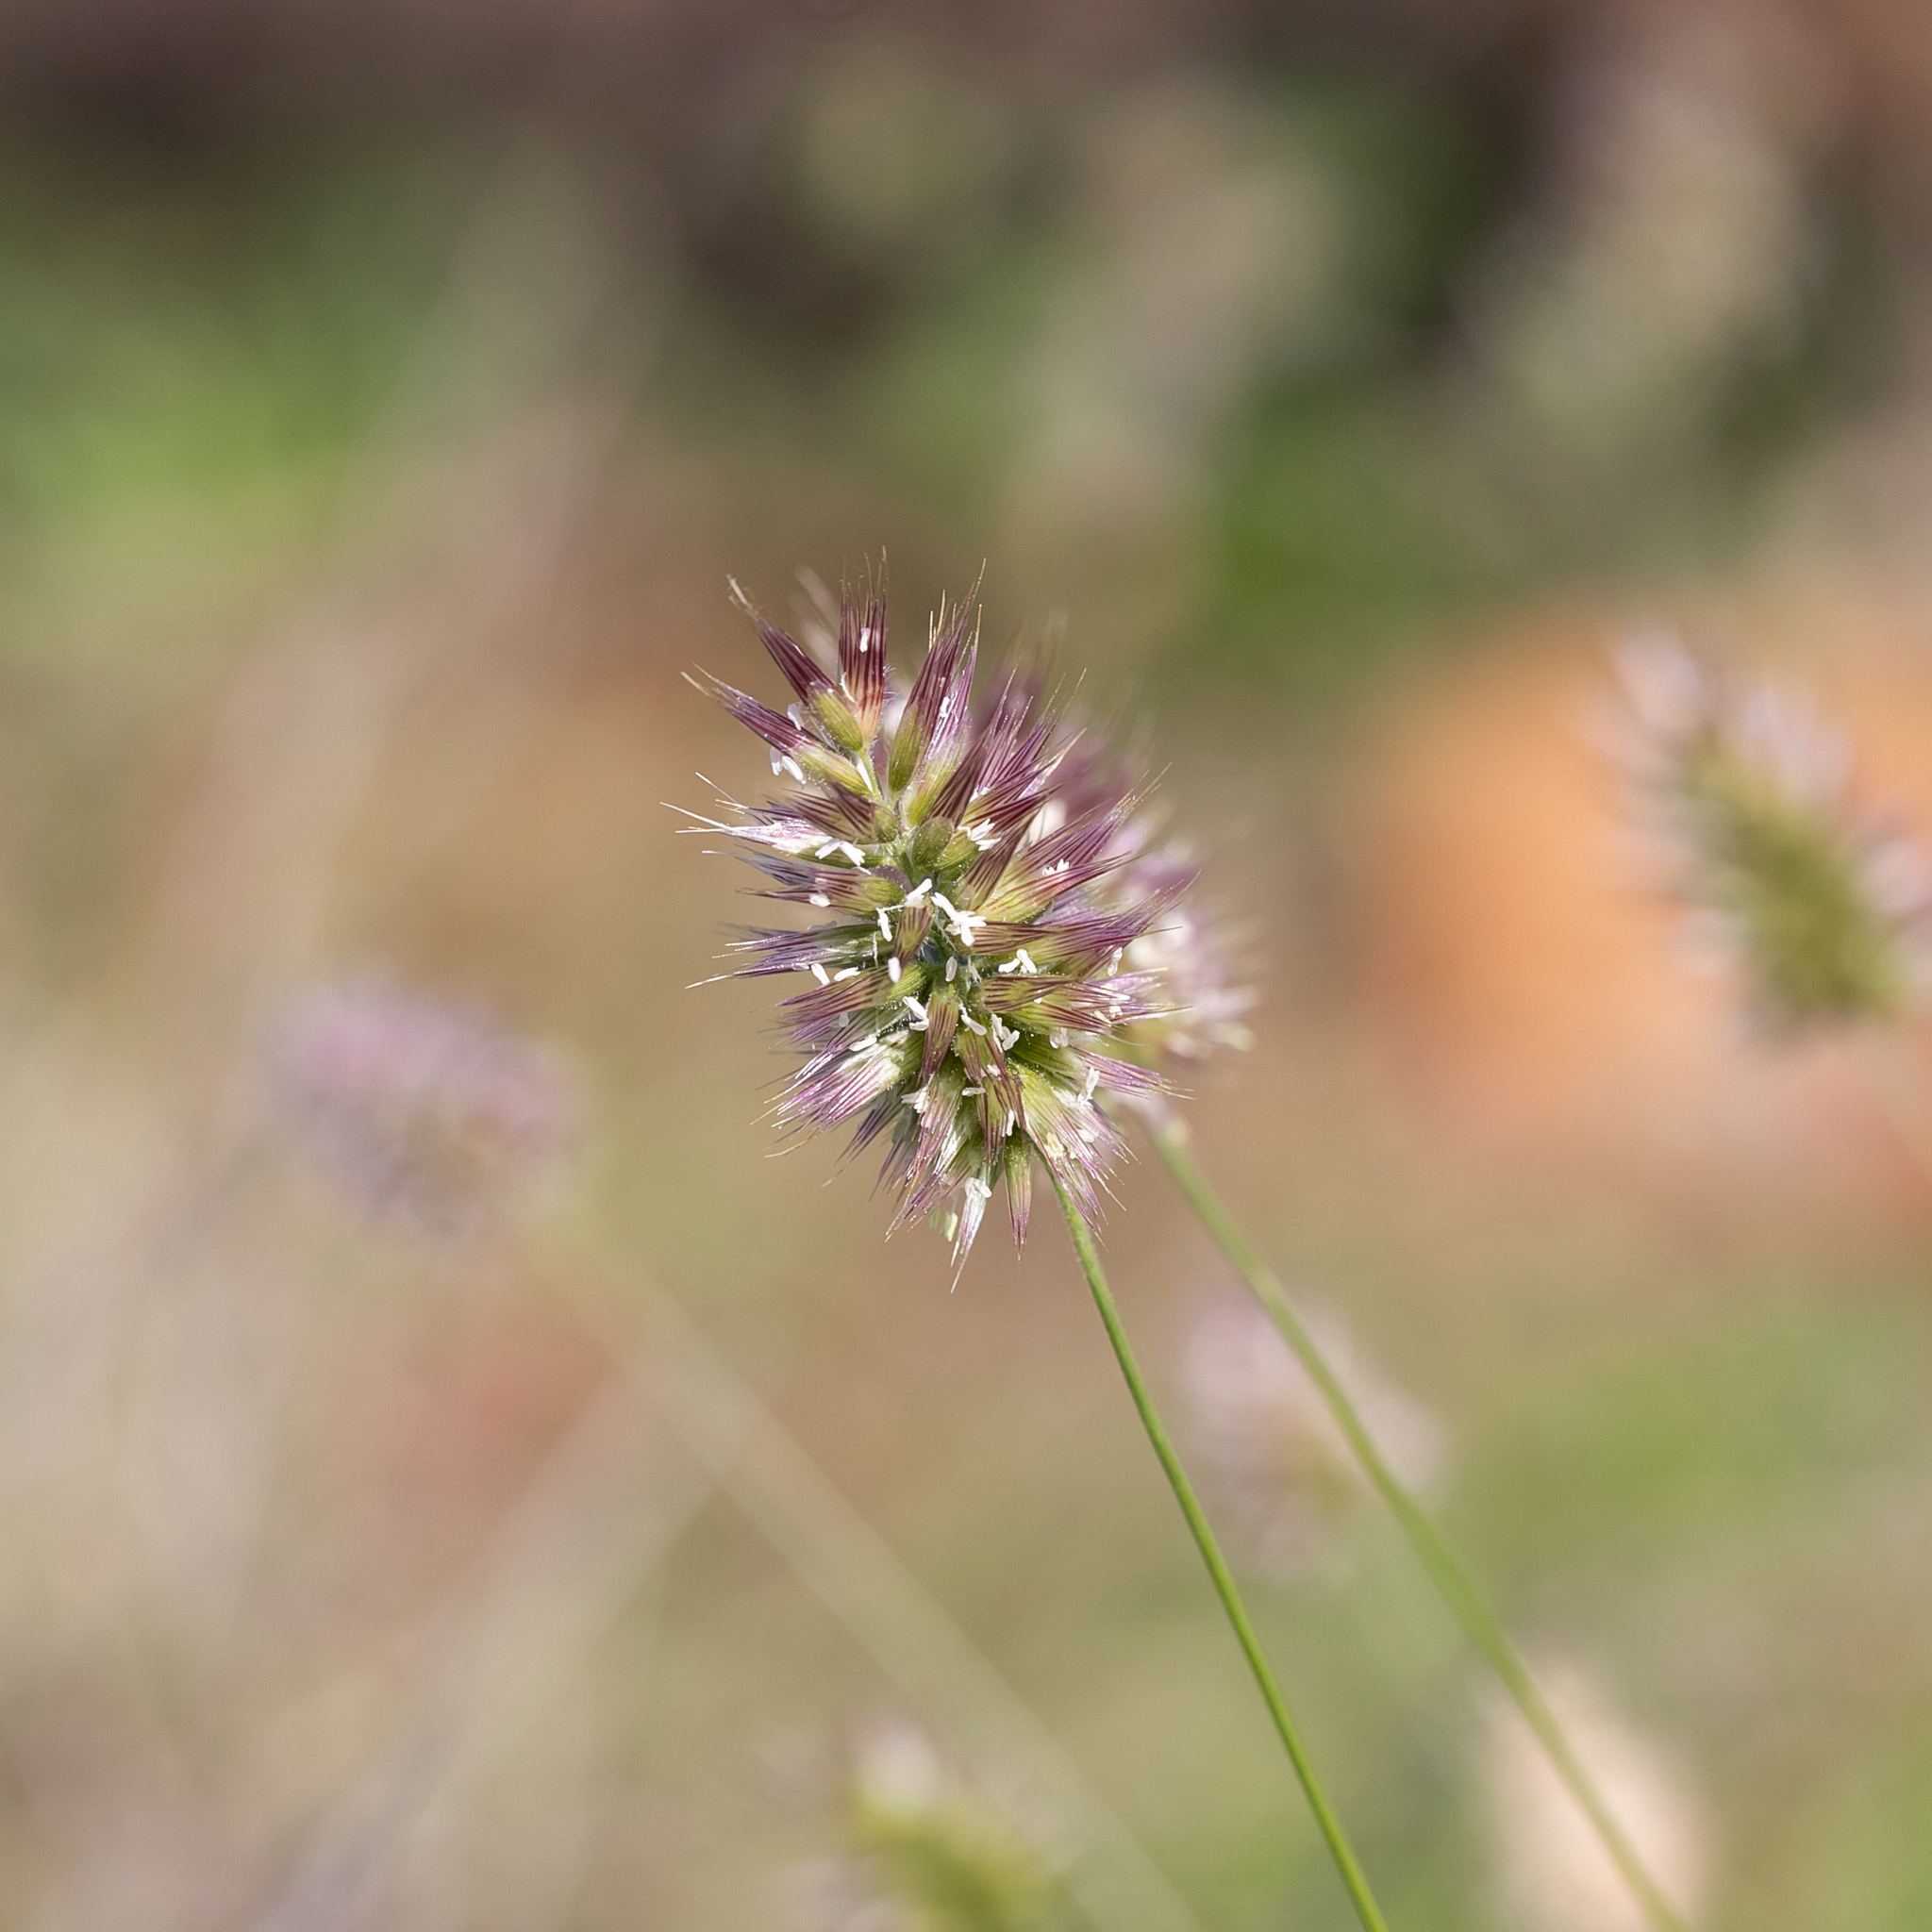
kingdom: Plantae
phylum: Tracheophyta
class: Liliopsida
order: Poales
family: Poaceae
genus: Enneapogon
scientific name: Enneapogon lindleyanus
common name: Conetop nineawn
